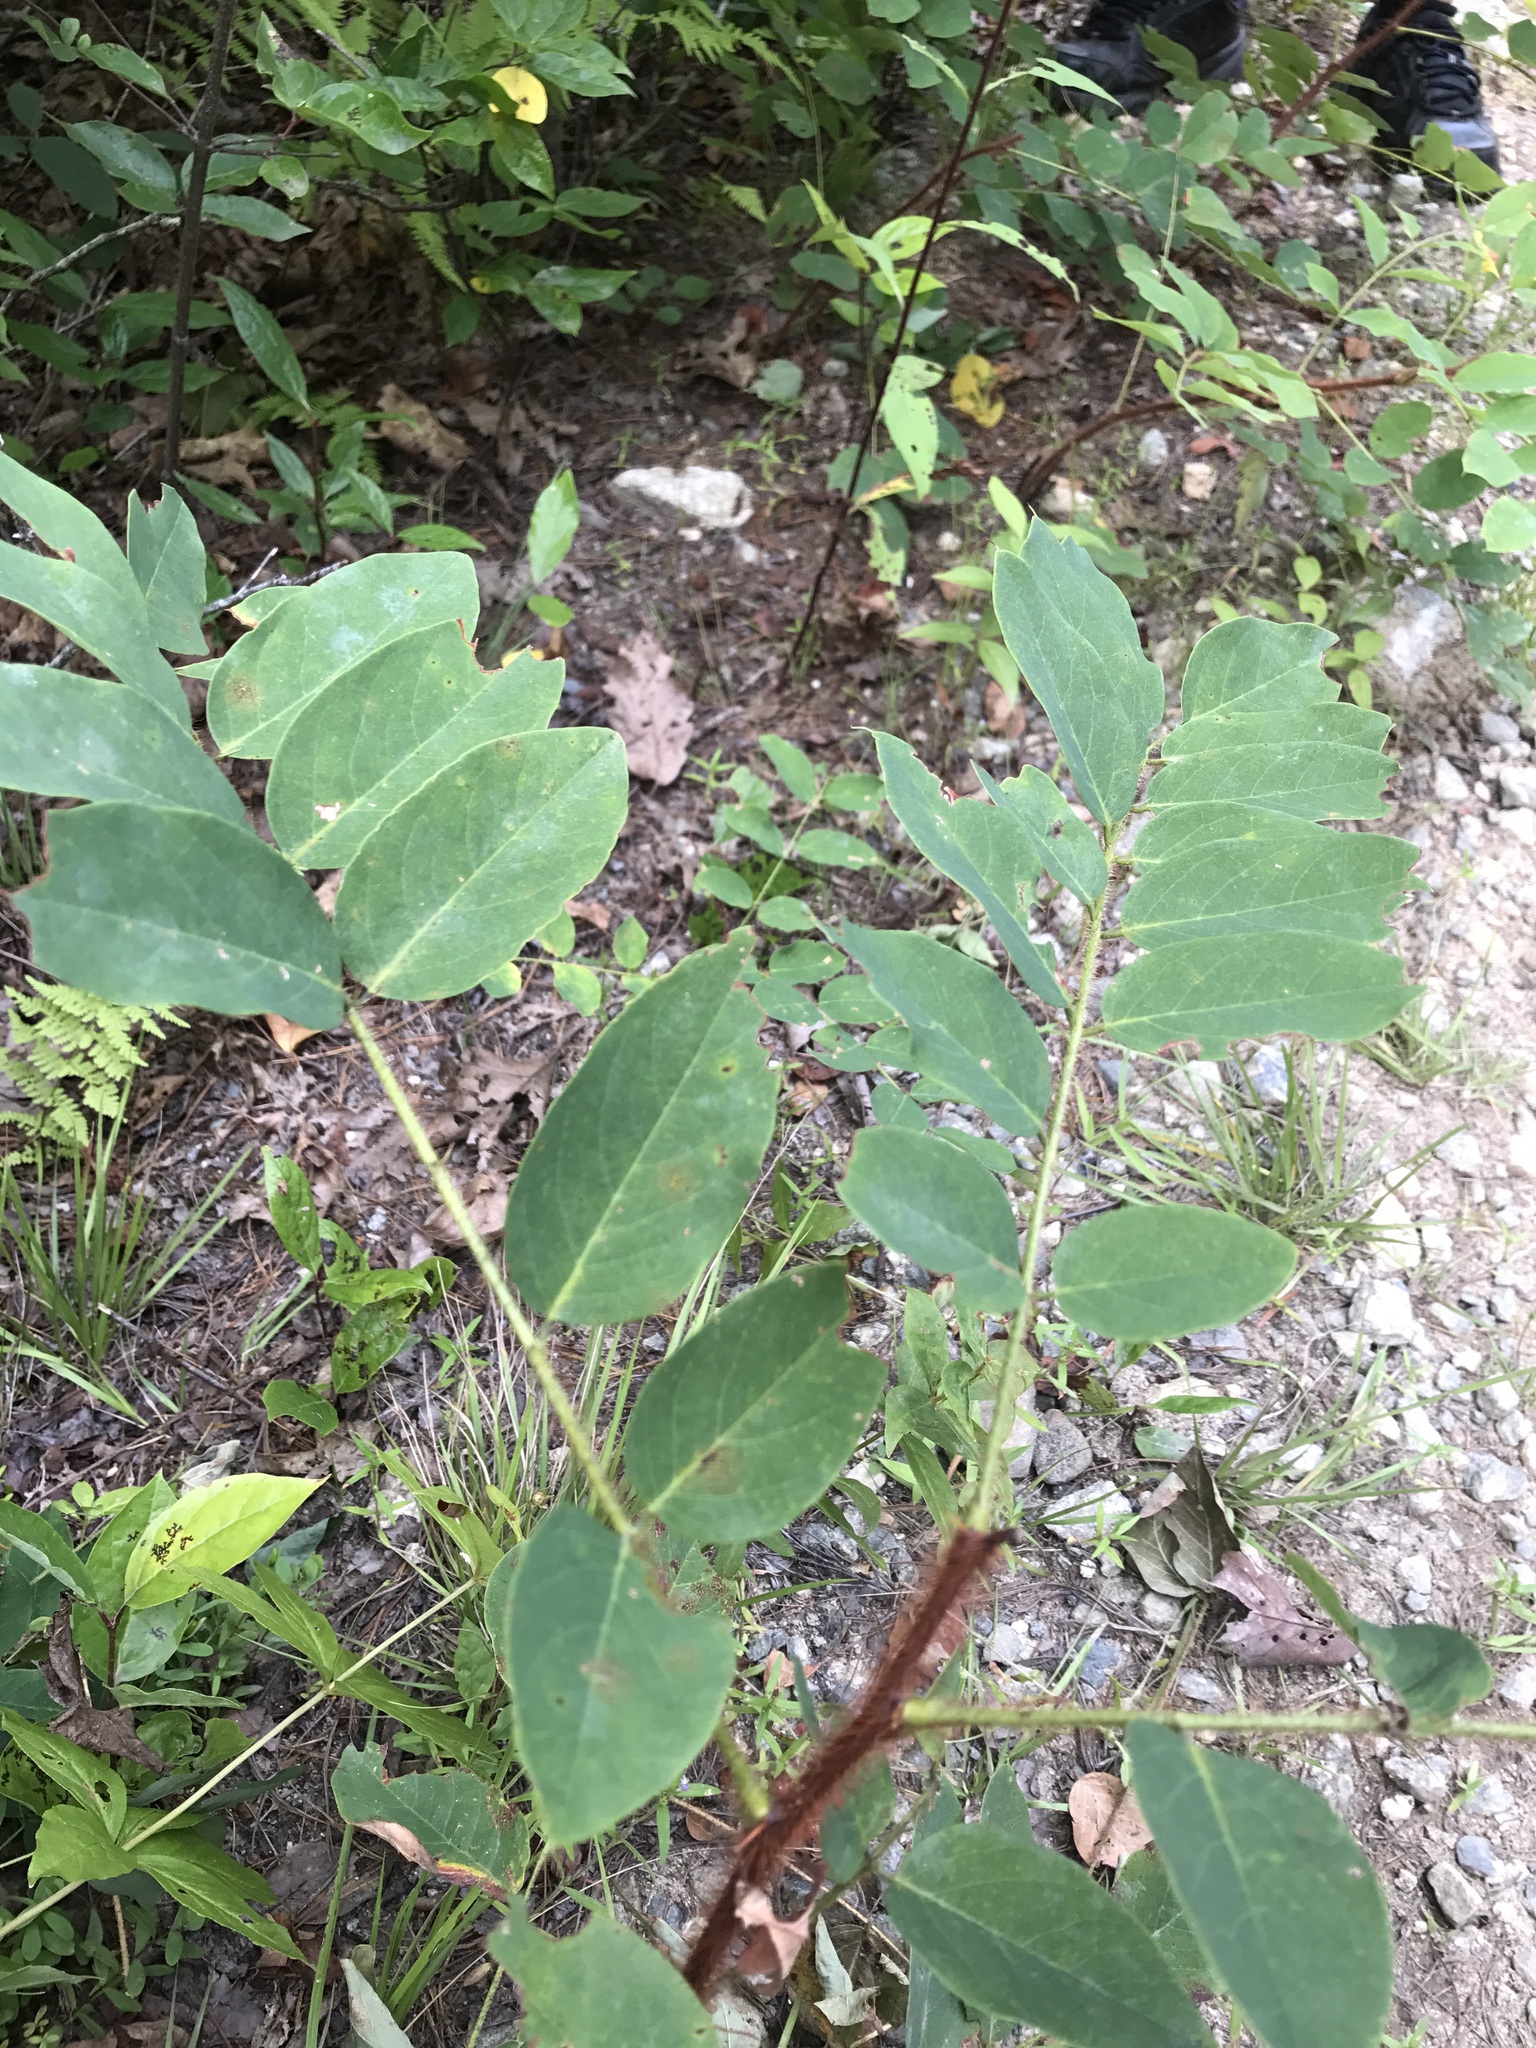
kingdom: Plantae
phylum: Tracheophyta
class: Magnoliopsida
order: Fabales
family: Fabaceae
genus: Robinia
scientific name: Robinia hispida
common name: Bristly locust
